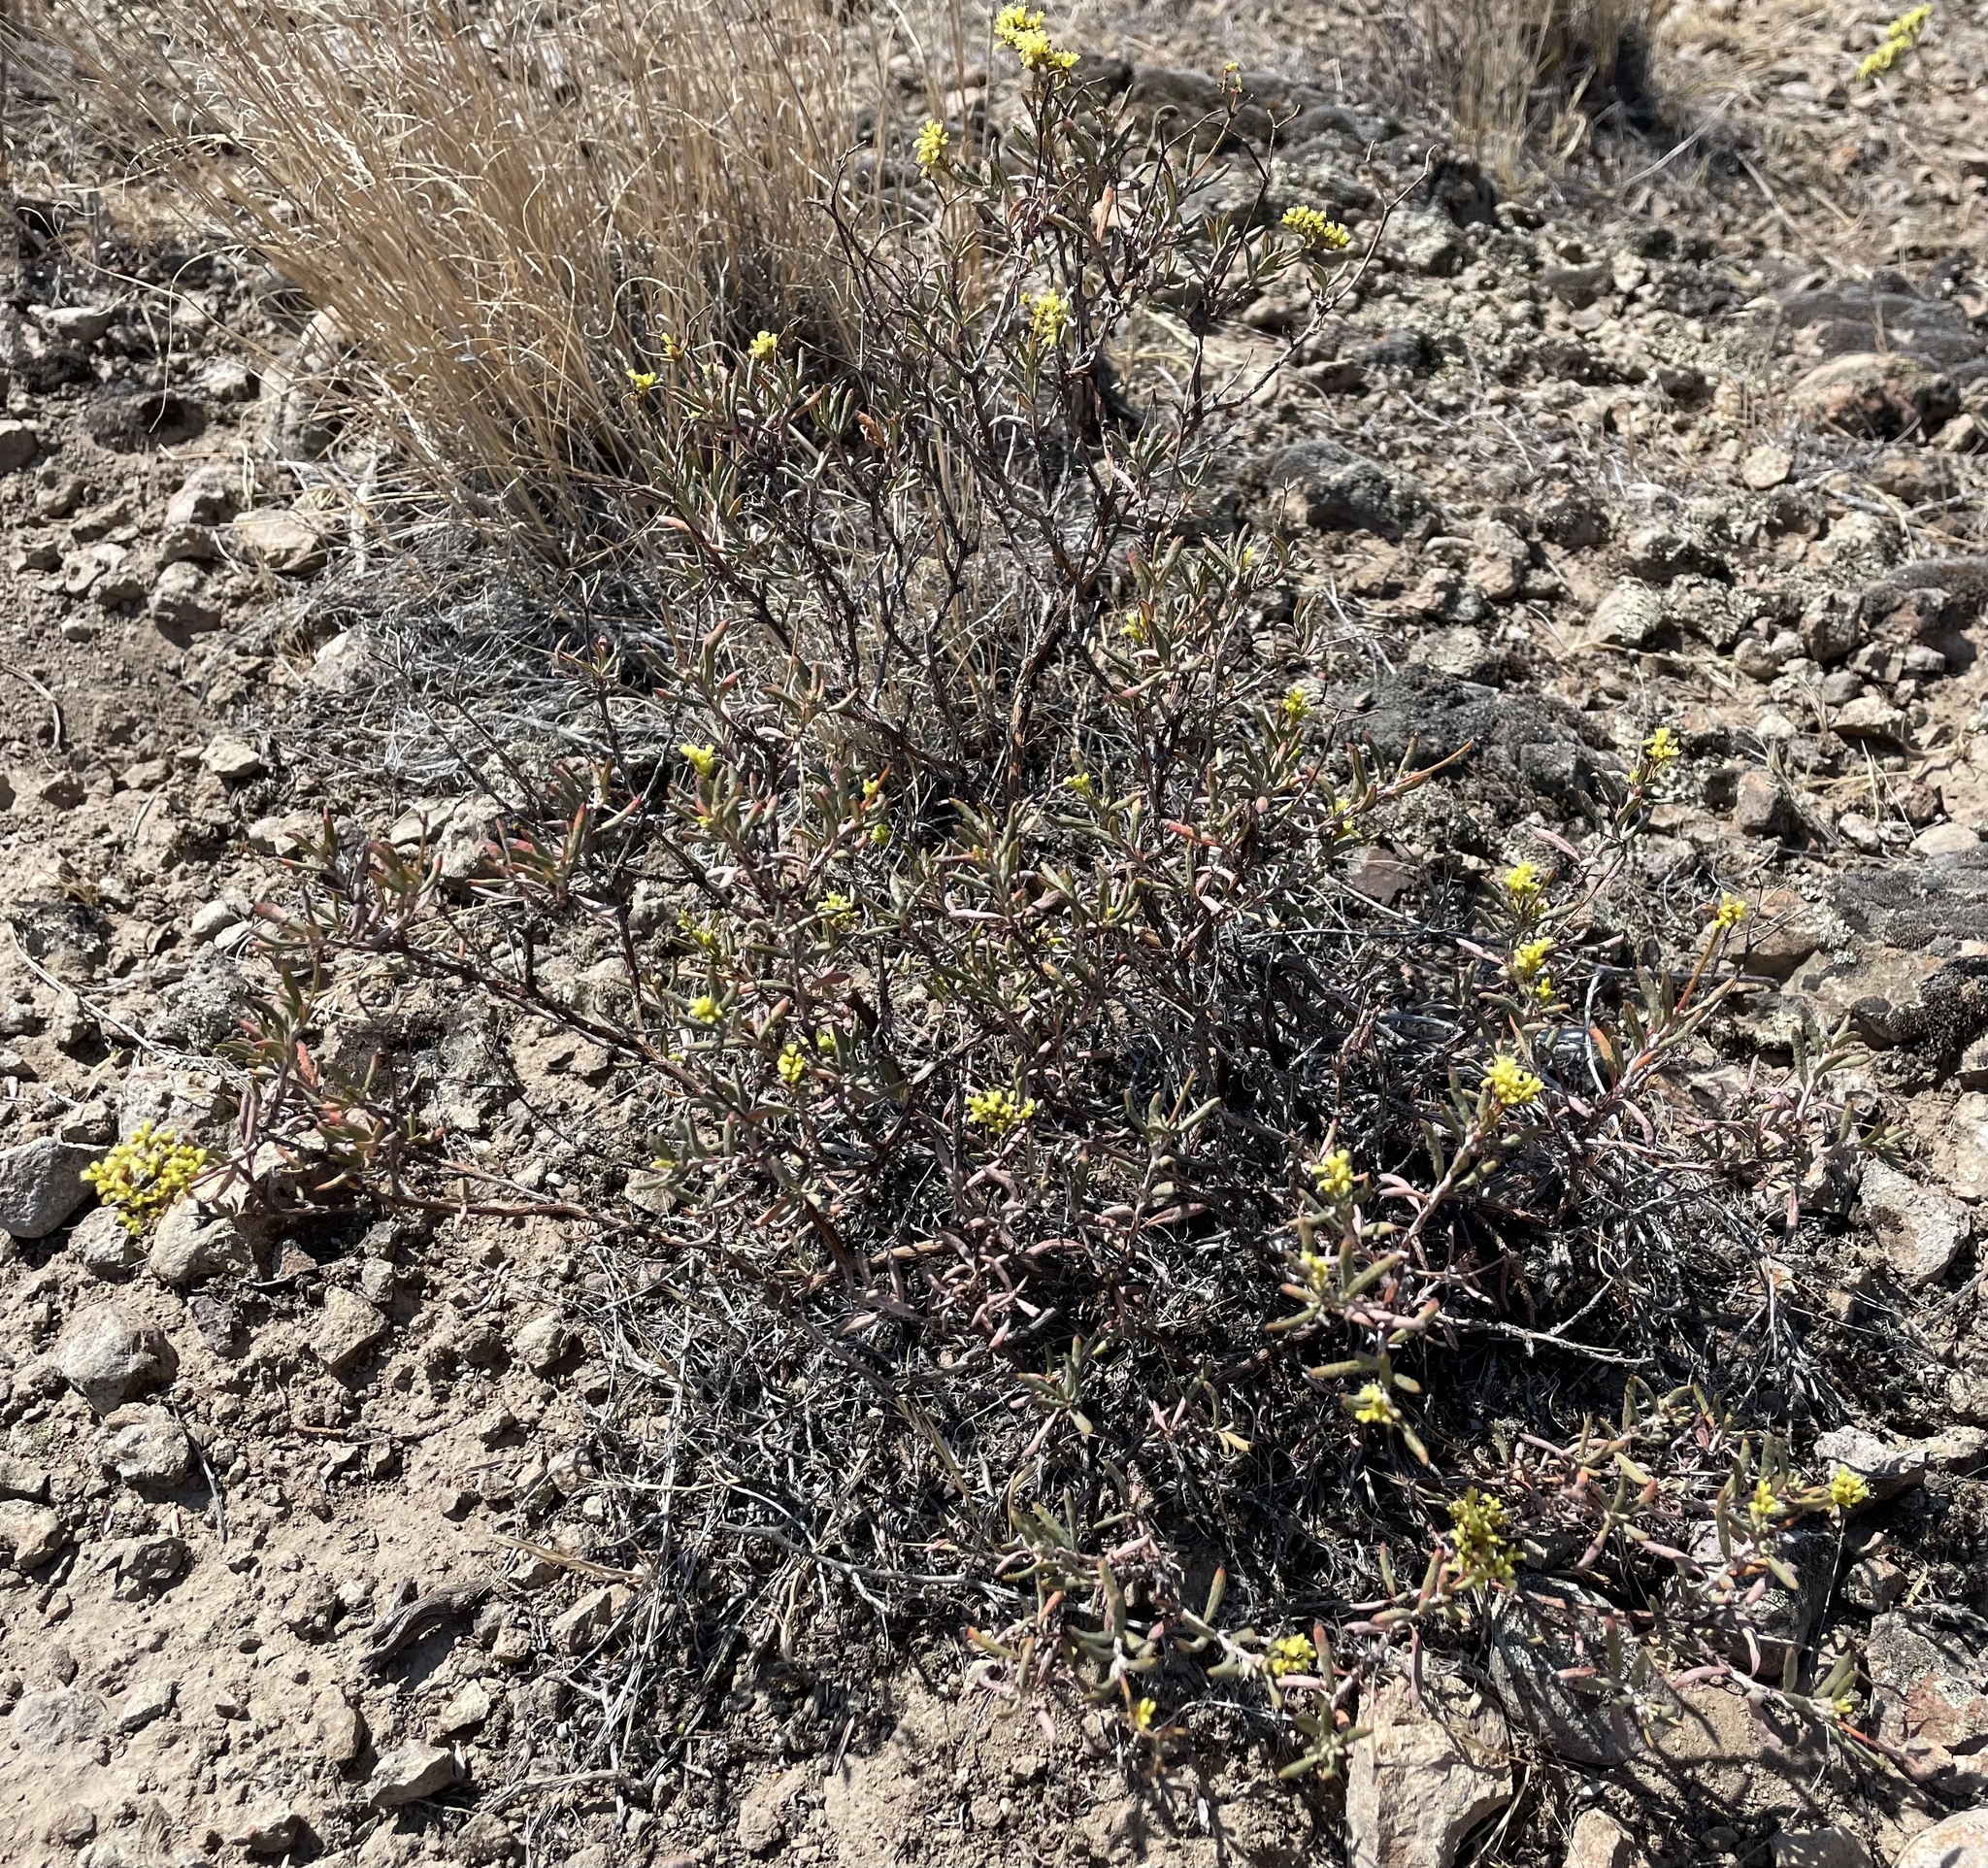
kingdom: Plantae
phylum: Tracheophyta
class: Magnoliopsida
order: Caryophyllales
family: Polygonaceae
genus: Eriogonum
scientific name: Eriogonum microtheca
